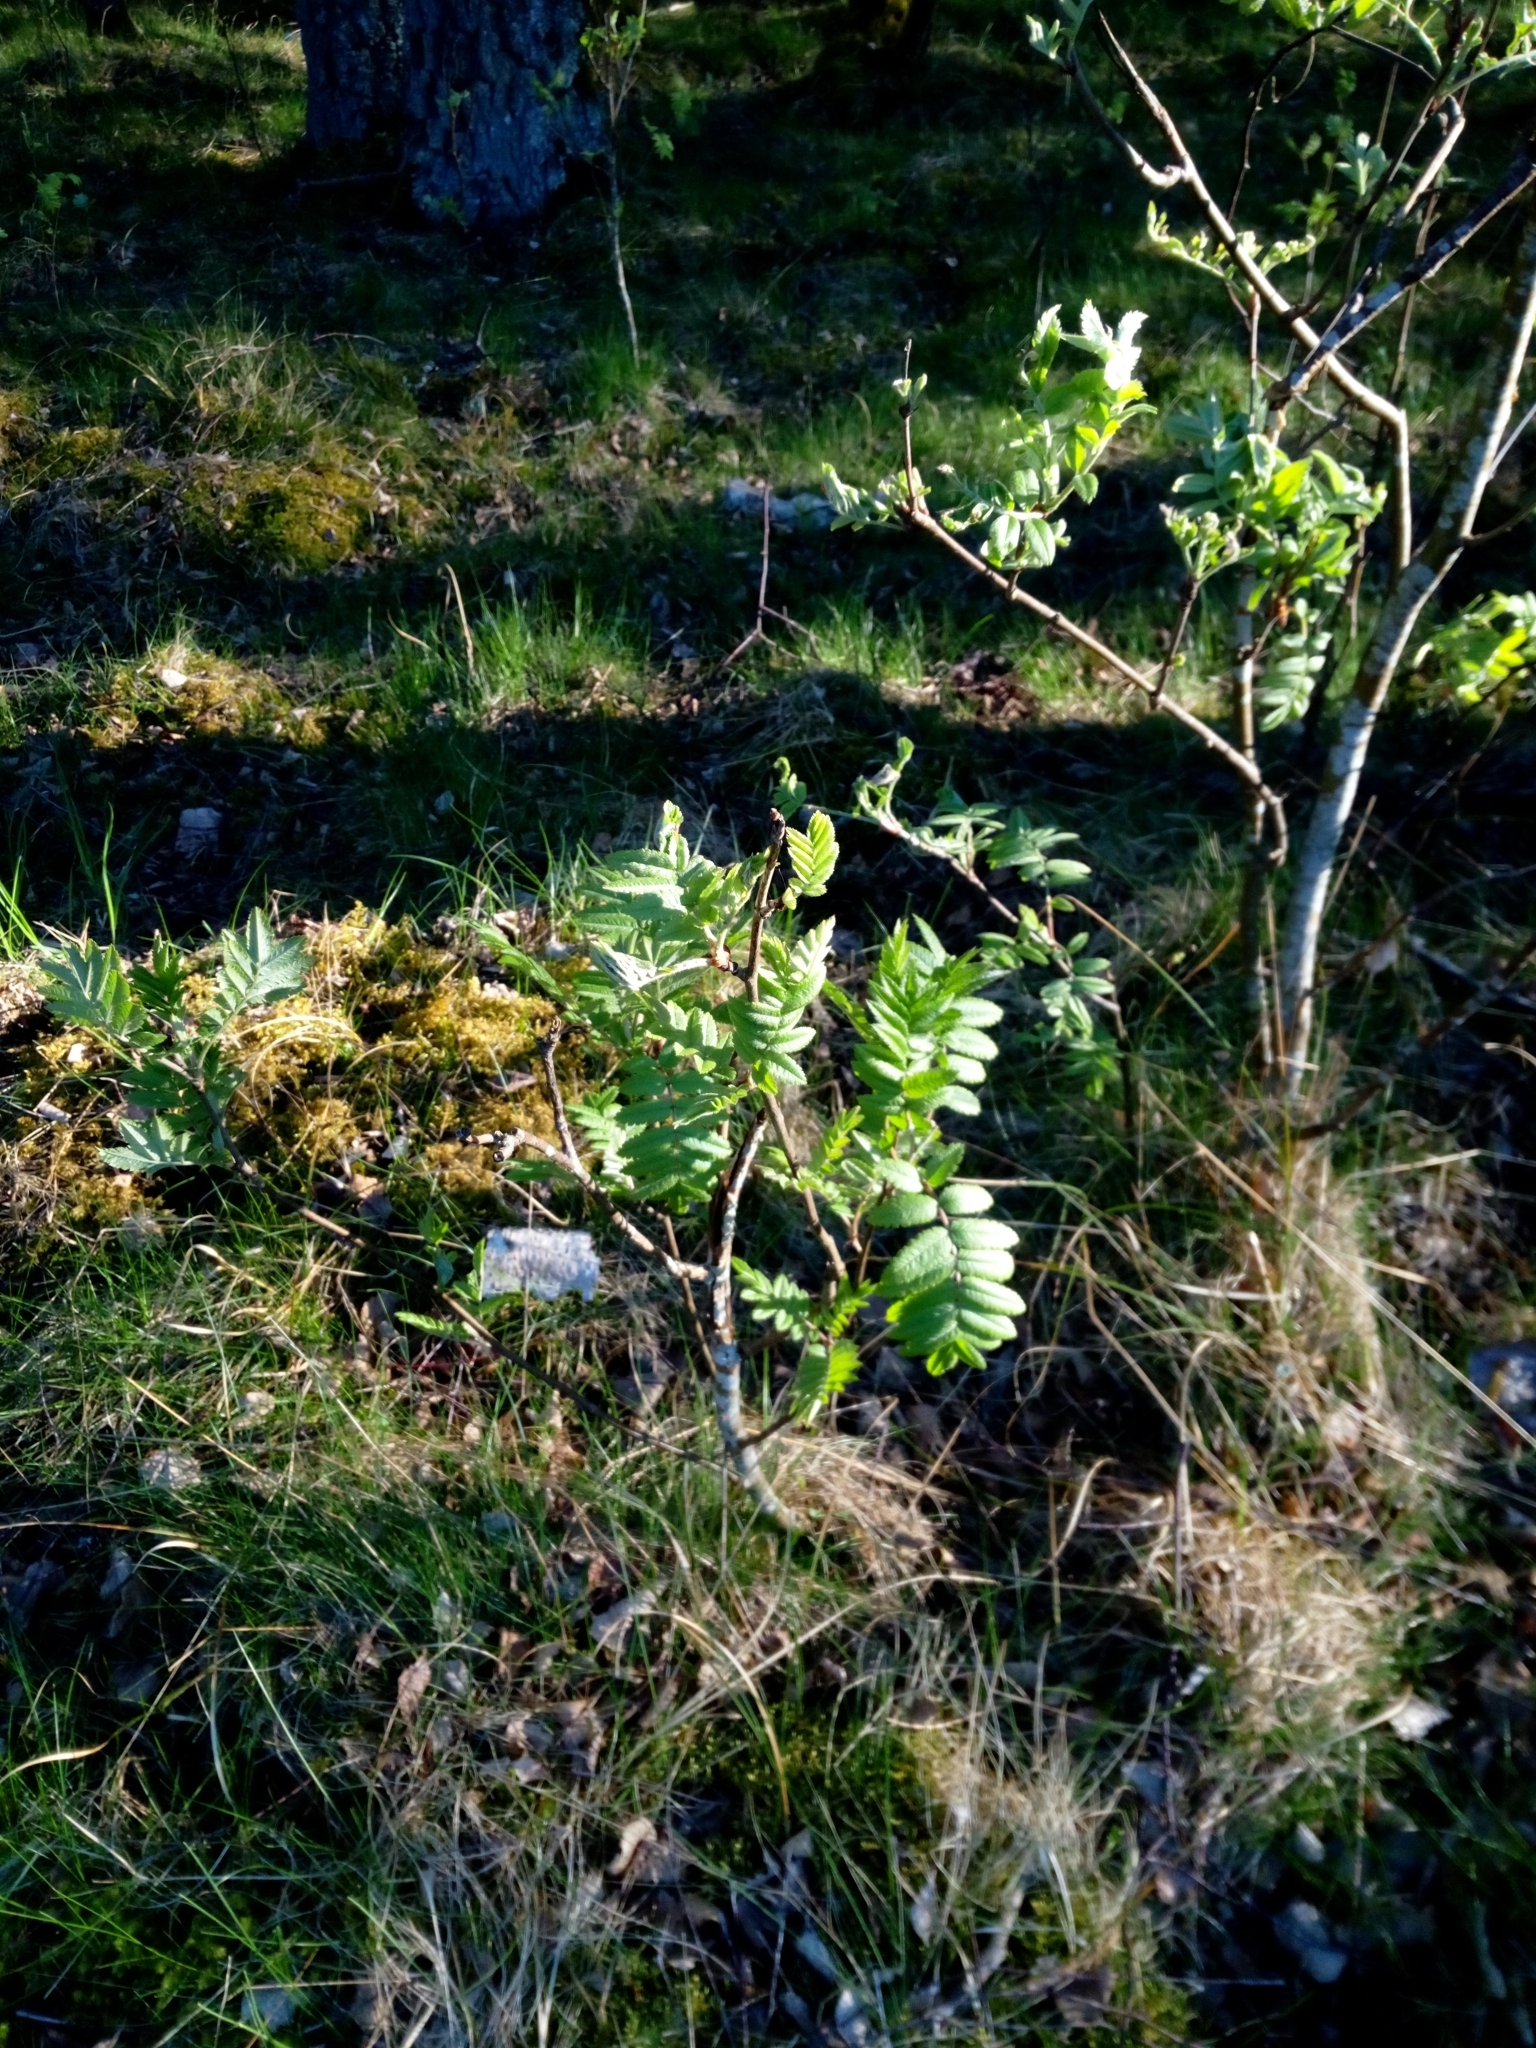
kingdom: Plantae
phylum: Tracheophyta
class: Magnoliopsida
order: Rosales
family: Rosaceae
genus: Sorbus
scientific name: Sorbus aucuparia
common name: Rowan
